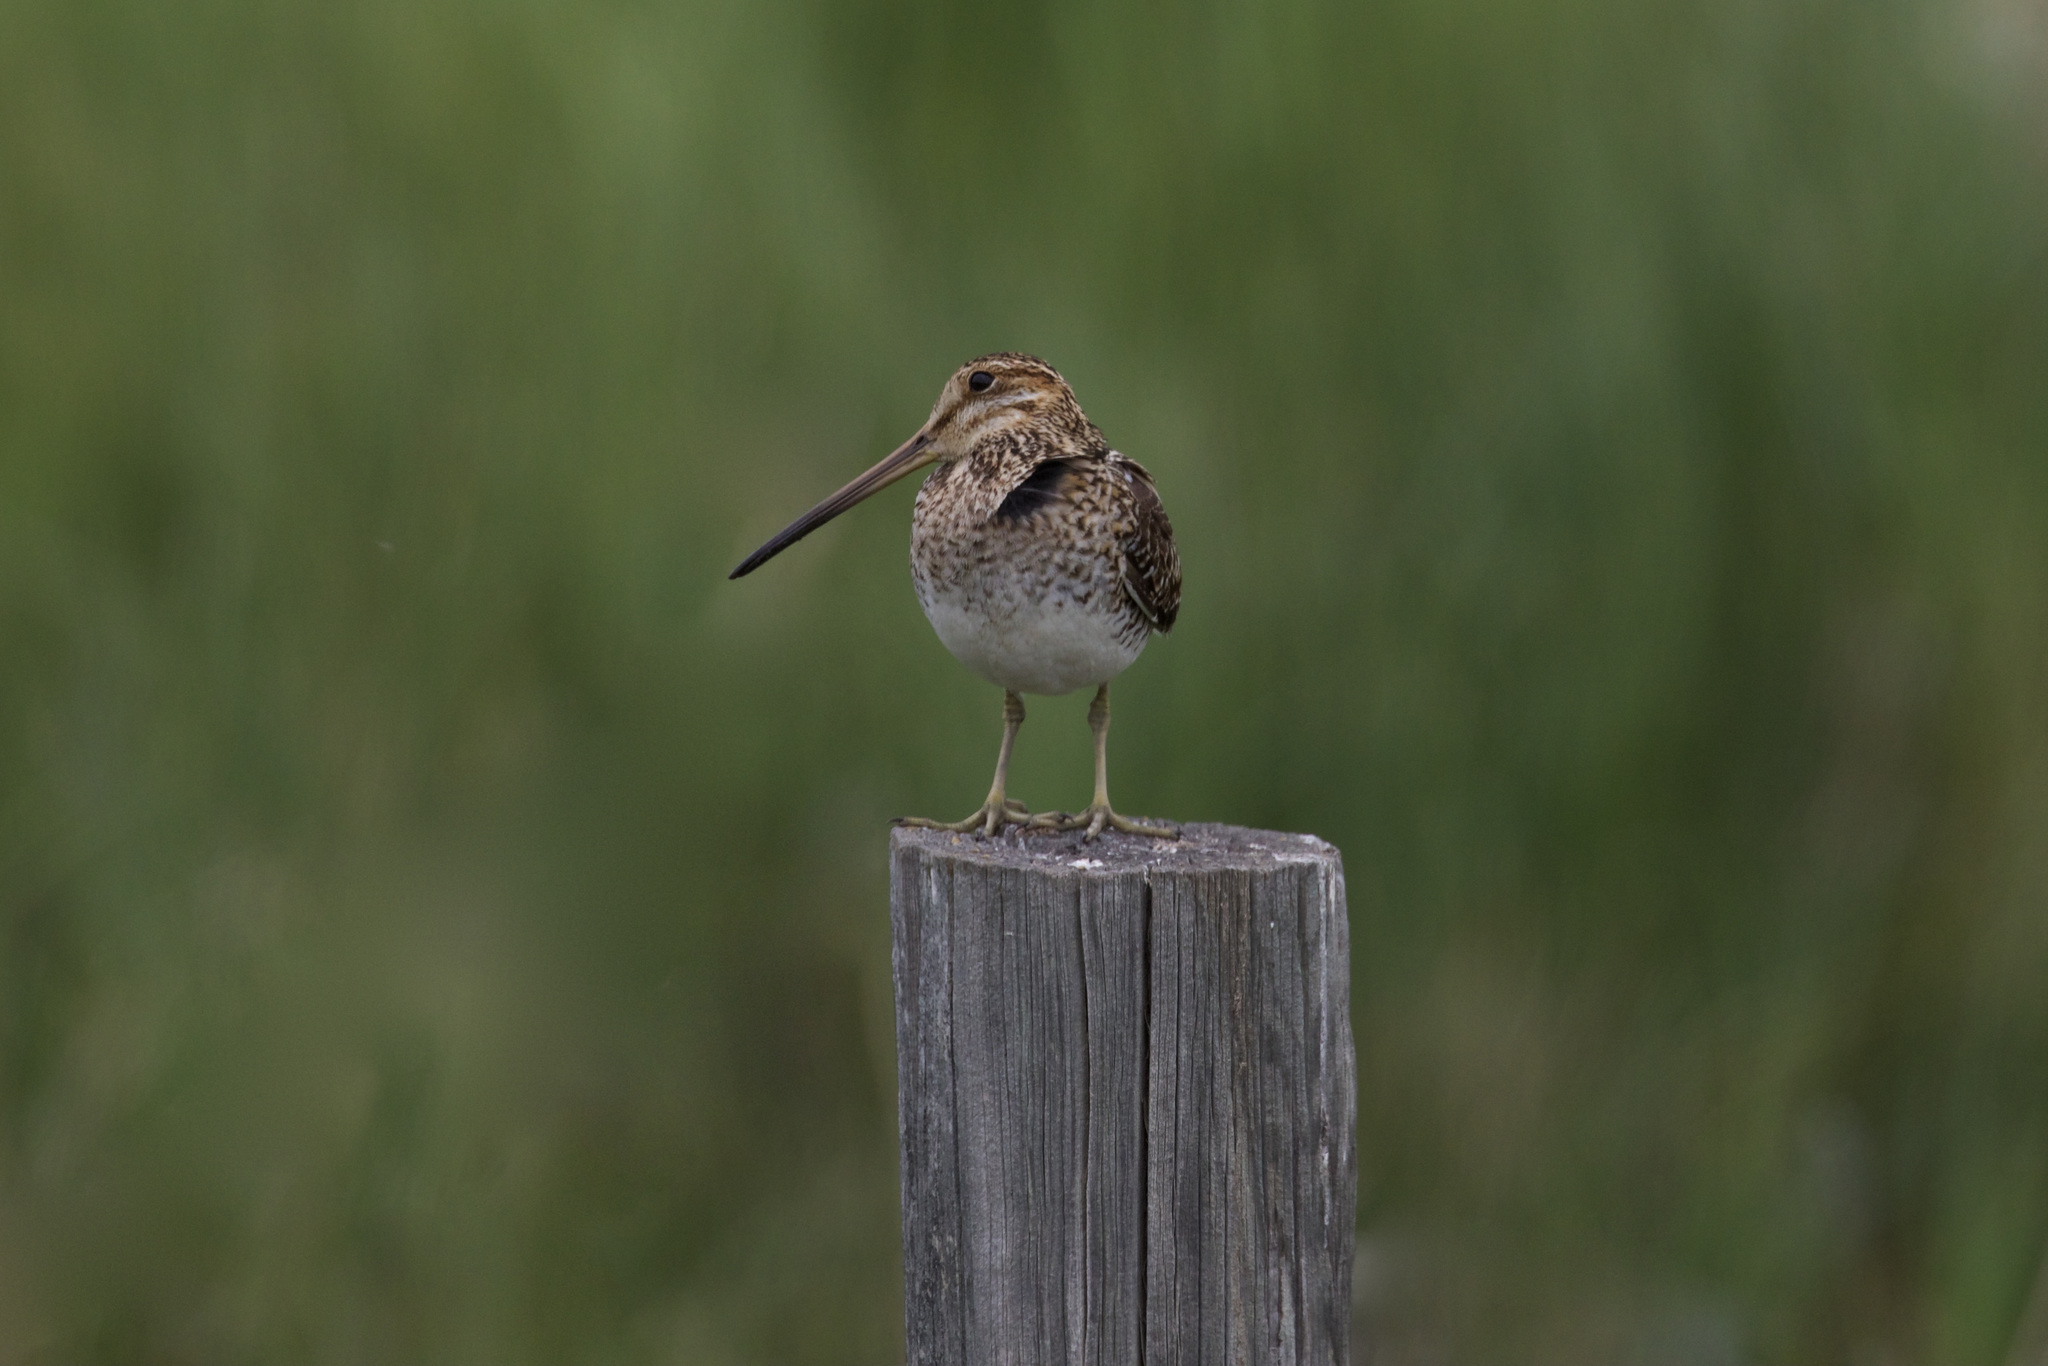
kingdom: Animalia
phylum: Chordata
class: Aves
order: Charadriiformes
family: Scolopacidae
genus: Gallinago
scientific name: Gallinago delicata
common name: Wilson's snipe
